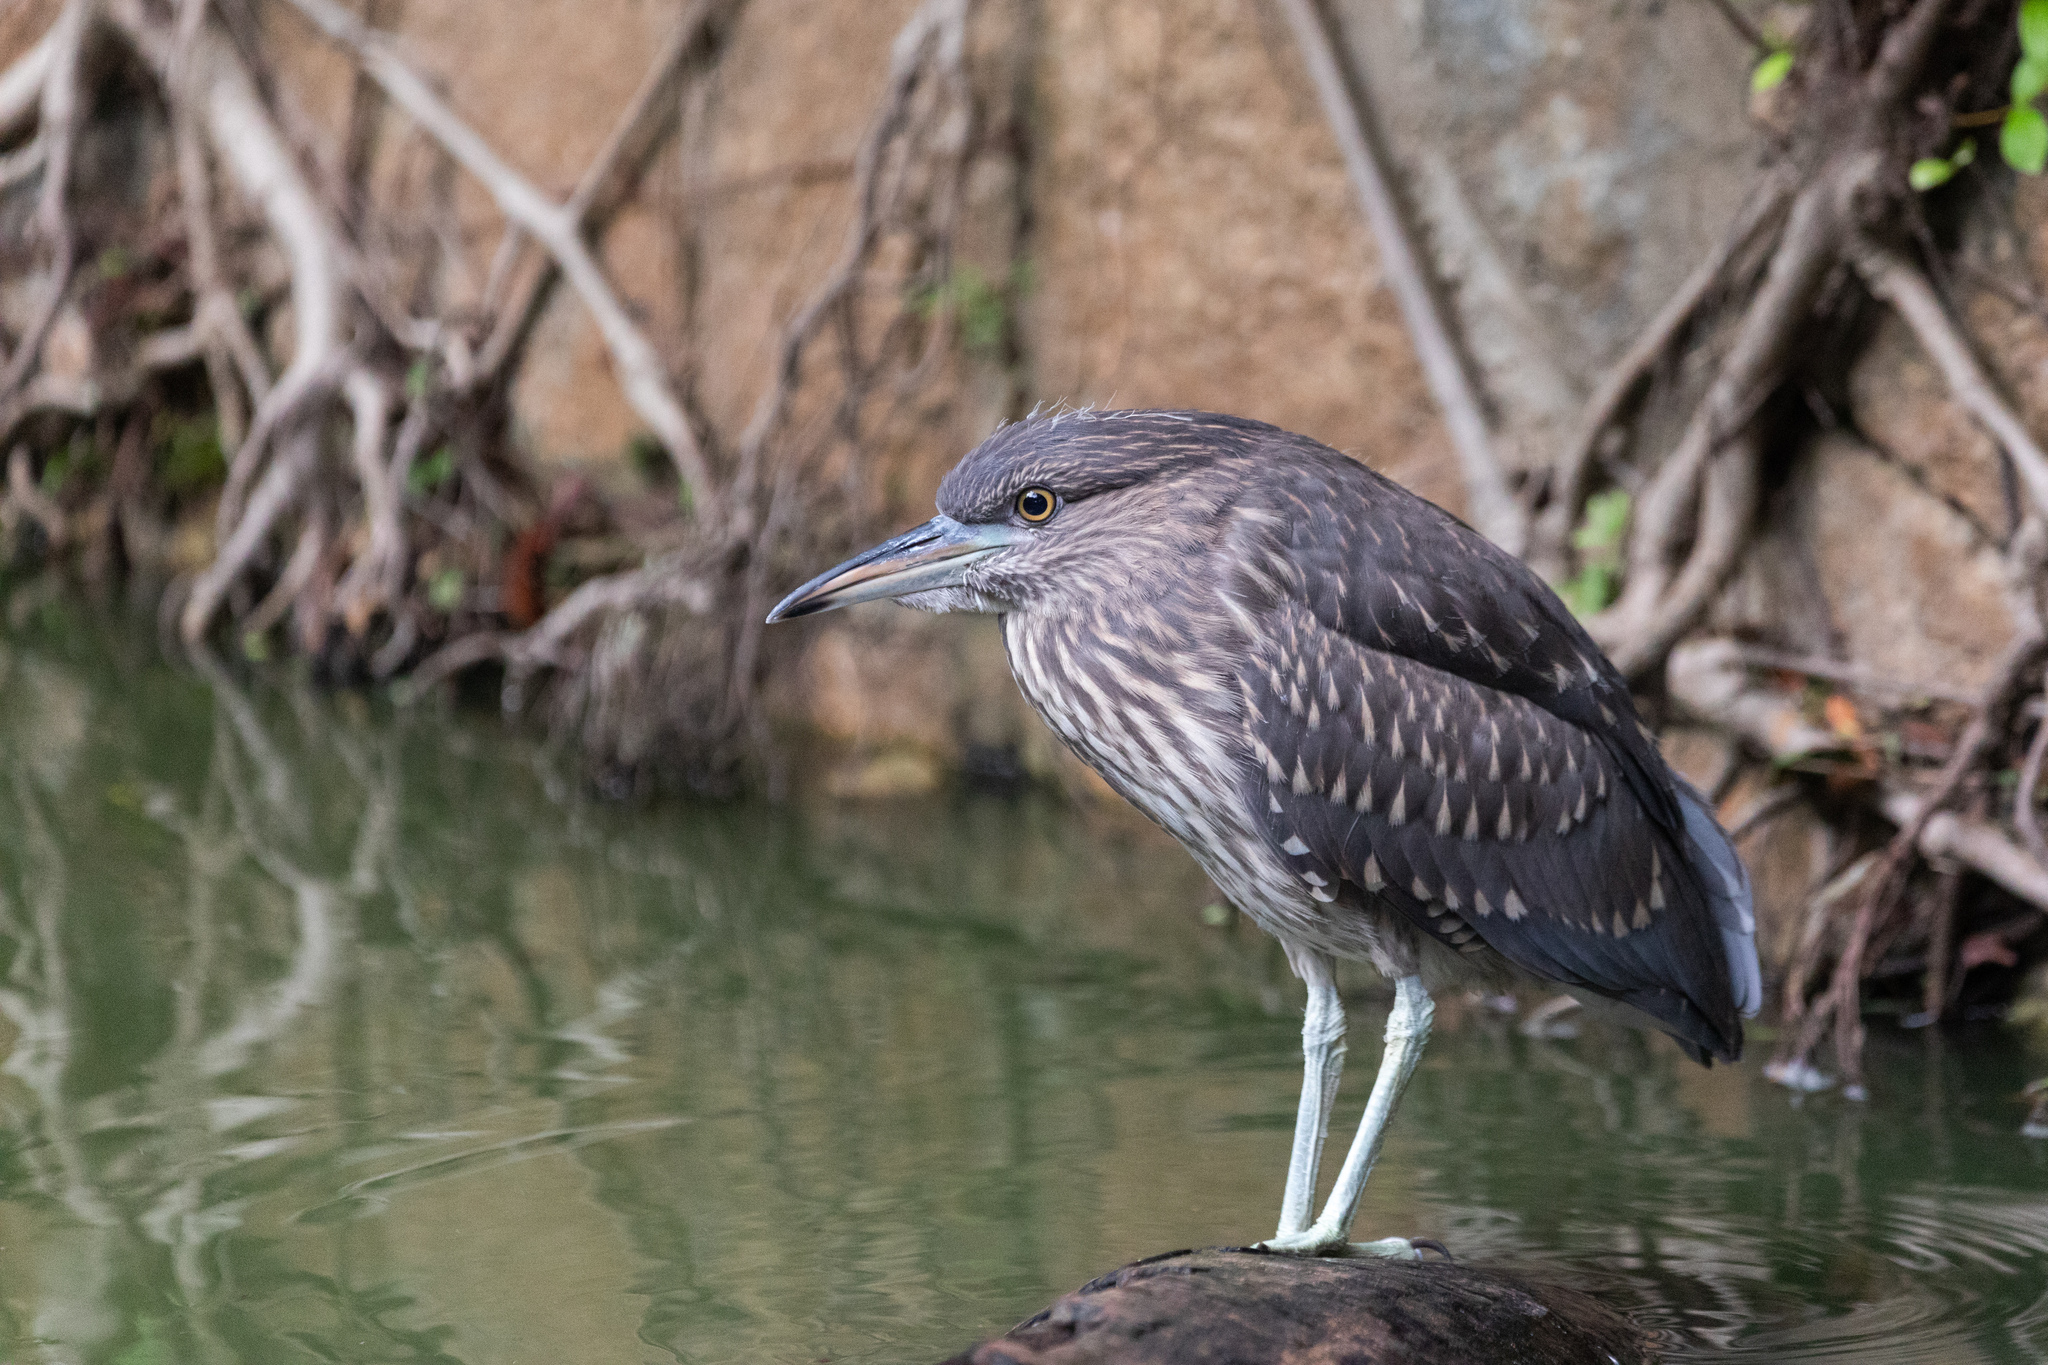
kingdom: Animalia
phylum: Chordata
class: Aves
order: Pelecaniformes
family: Ardeidae
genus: Nycticorax
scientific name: Nycticorax nycticorax
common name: Black-crowned night heron
